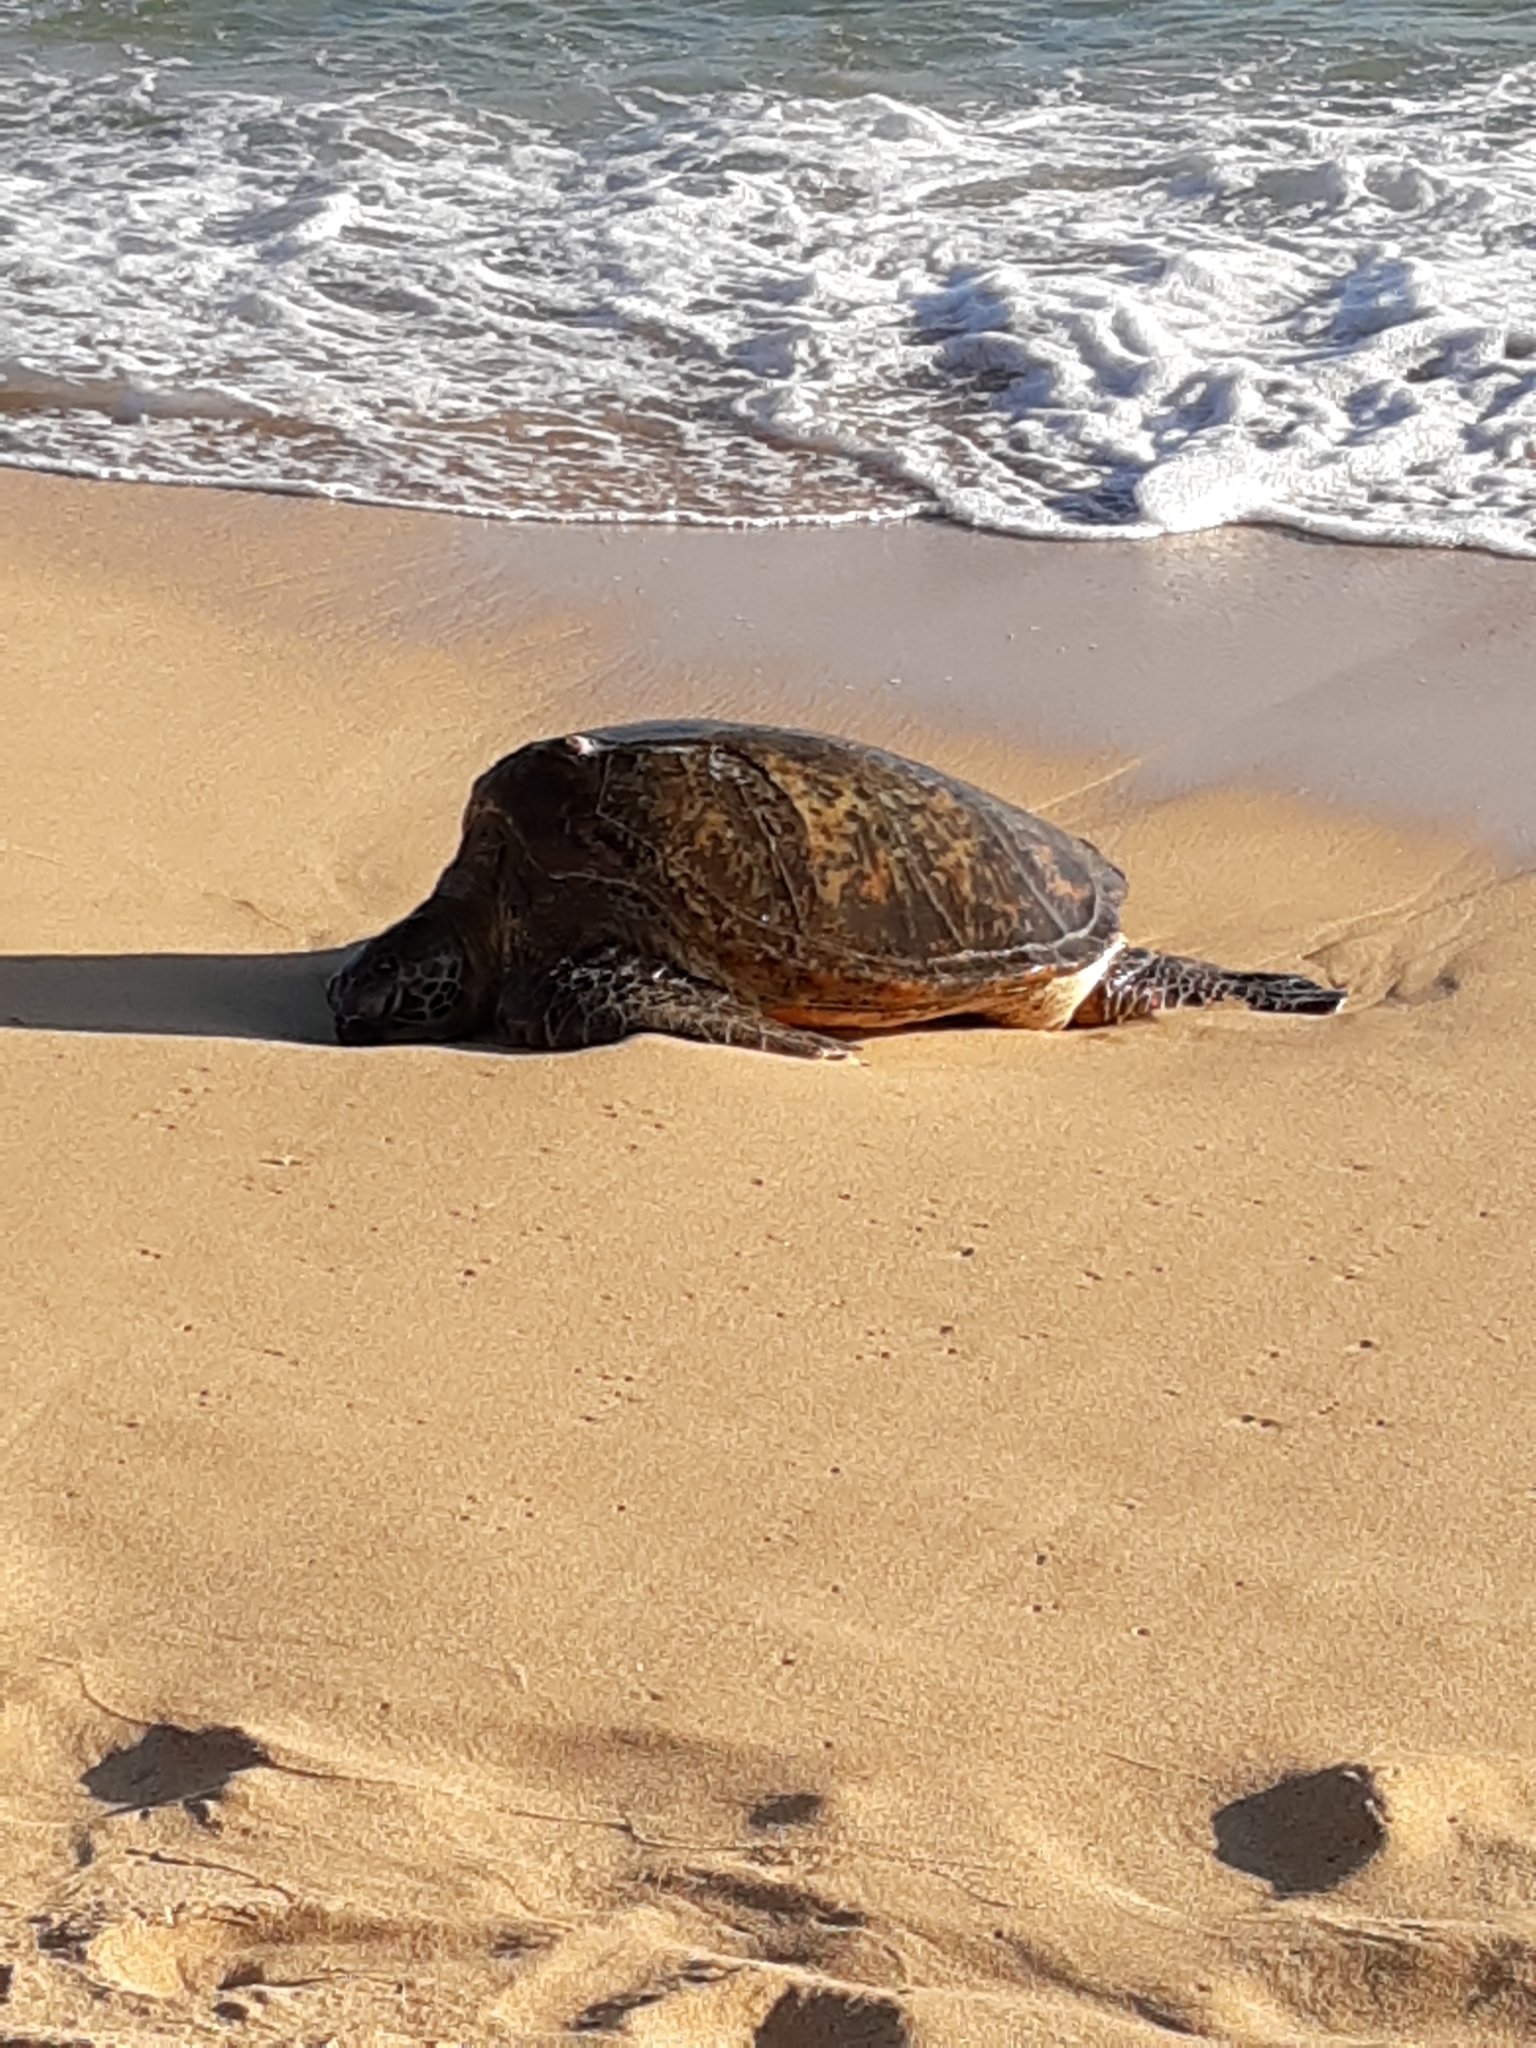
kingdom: Animalia
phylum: Chordata
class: Testudines
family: Cheloniidae
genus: Chelonia
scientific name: Chelonia mydas
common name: Green turtle
